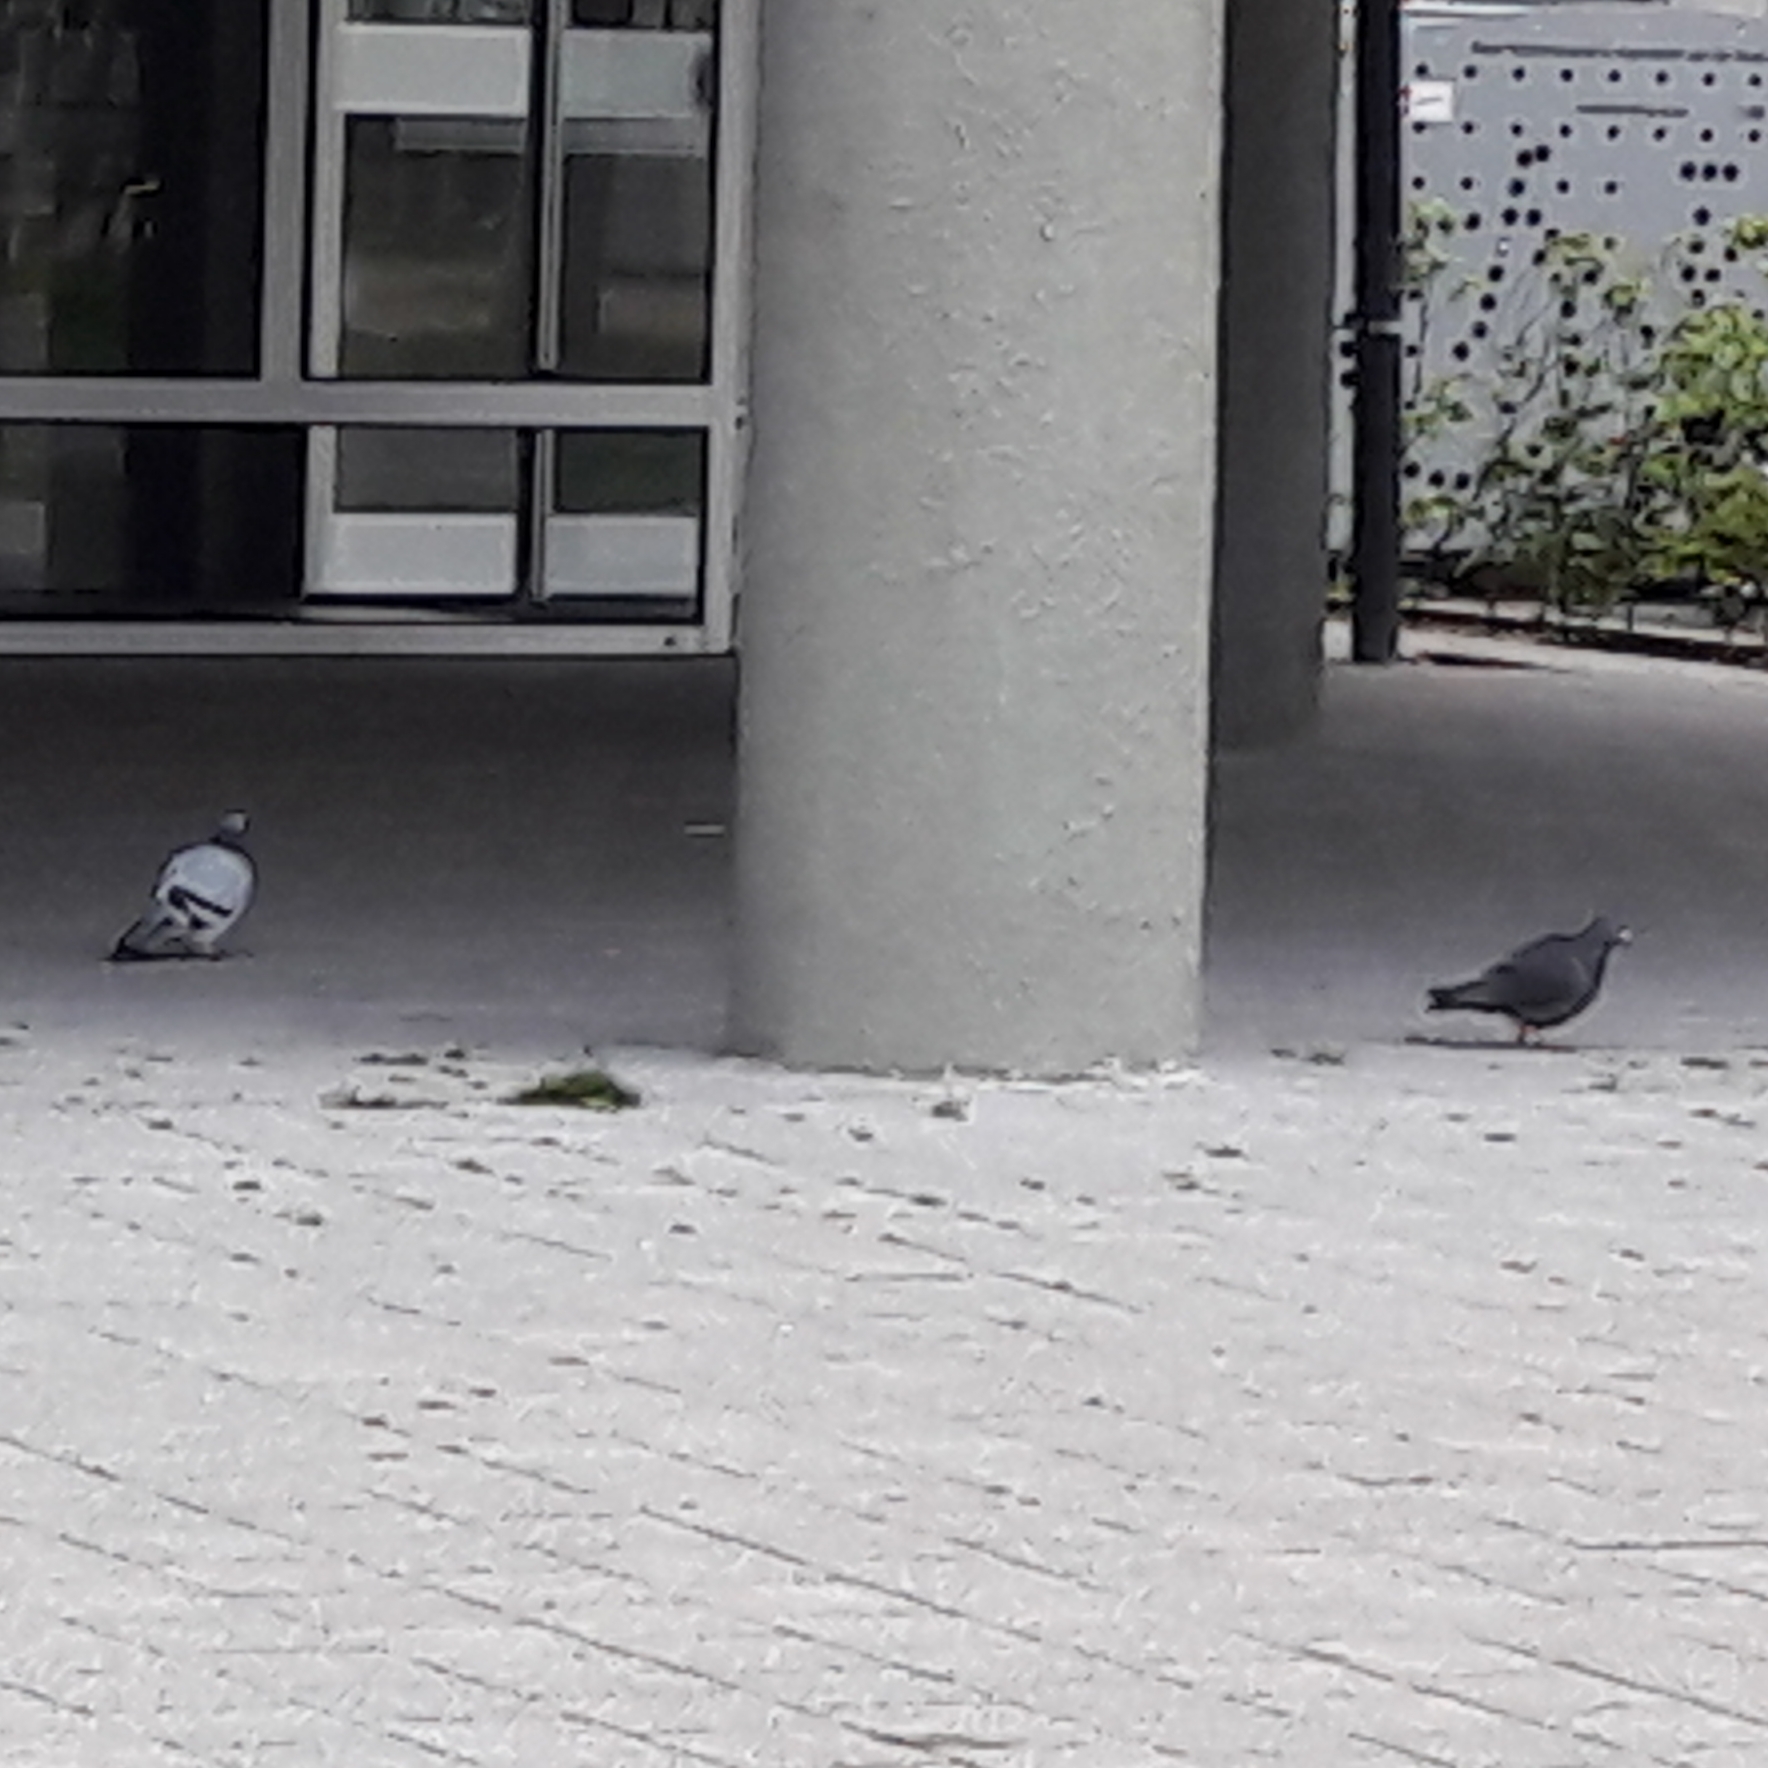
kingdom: Animalia
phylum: Chordata
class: Aves
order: Columbiformes
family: Columbidae
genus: Columba
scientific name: Columba livia
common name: Rock pigeon
